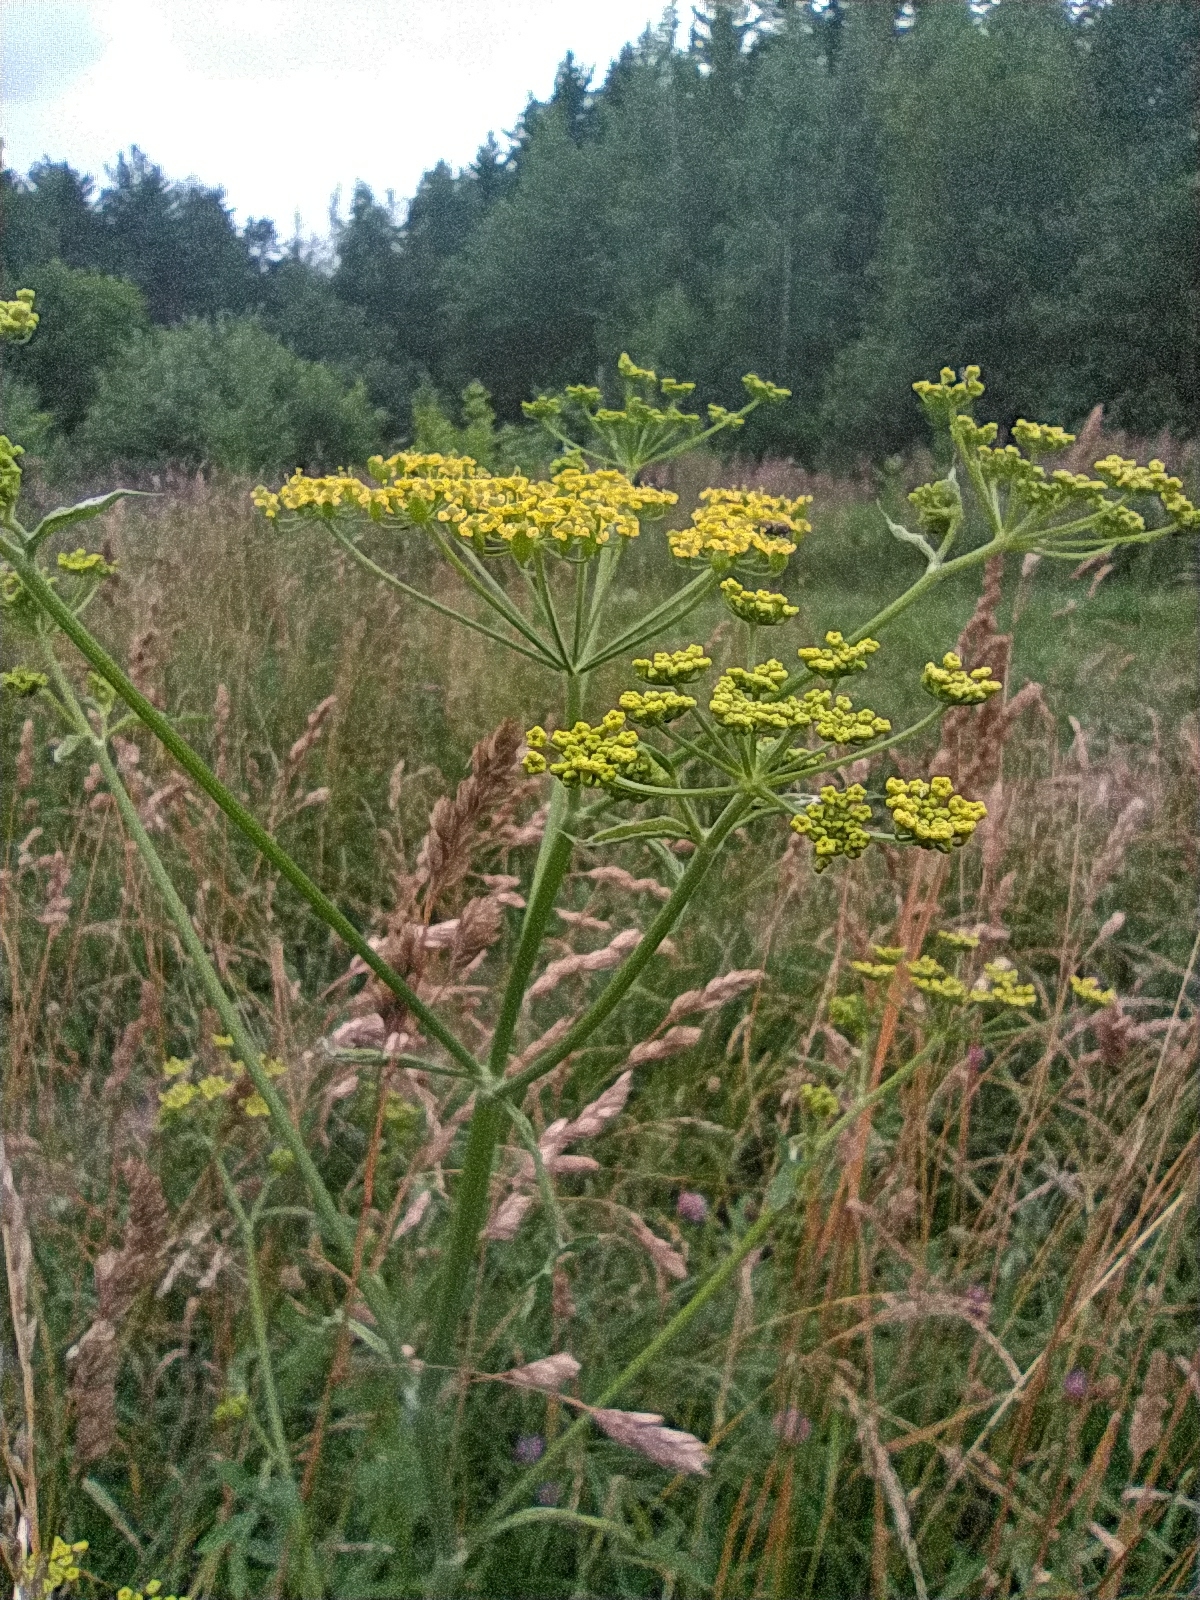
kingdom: Plantae
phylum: Tracheophyta
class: Magnoliopsida
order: Apiales
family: Apiaceae
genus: Pastinaca
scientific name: Pastinaca sativa
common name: Wild parsnip
